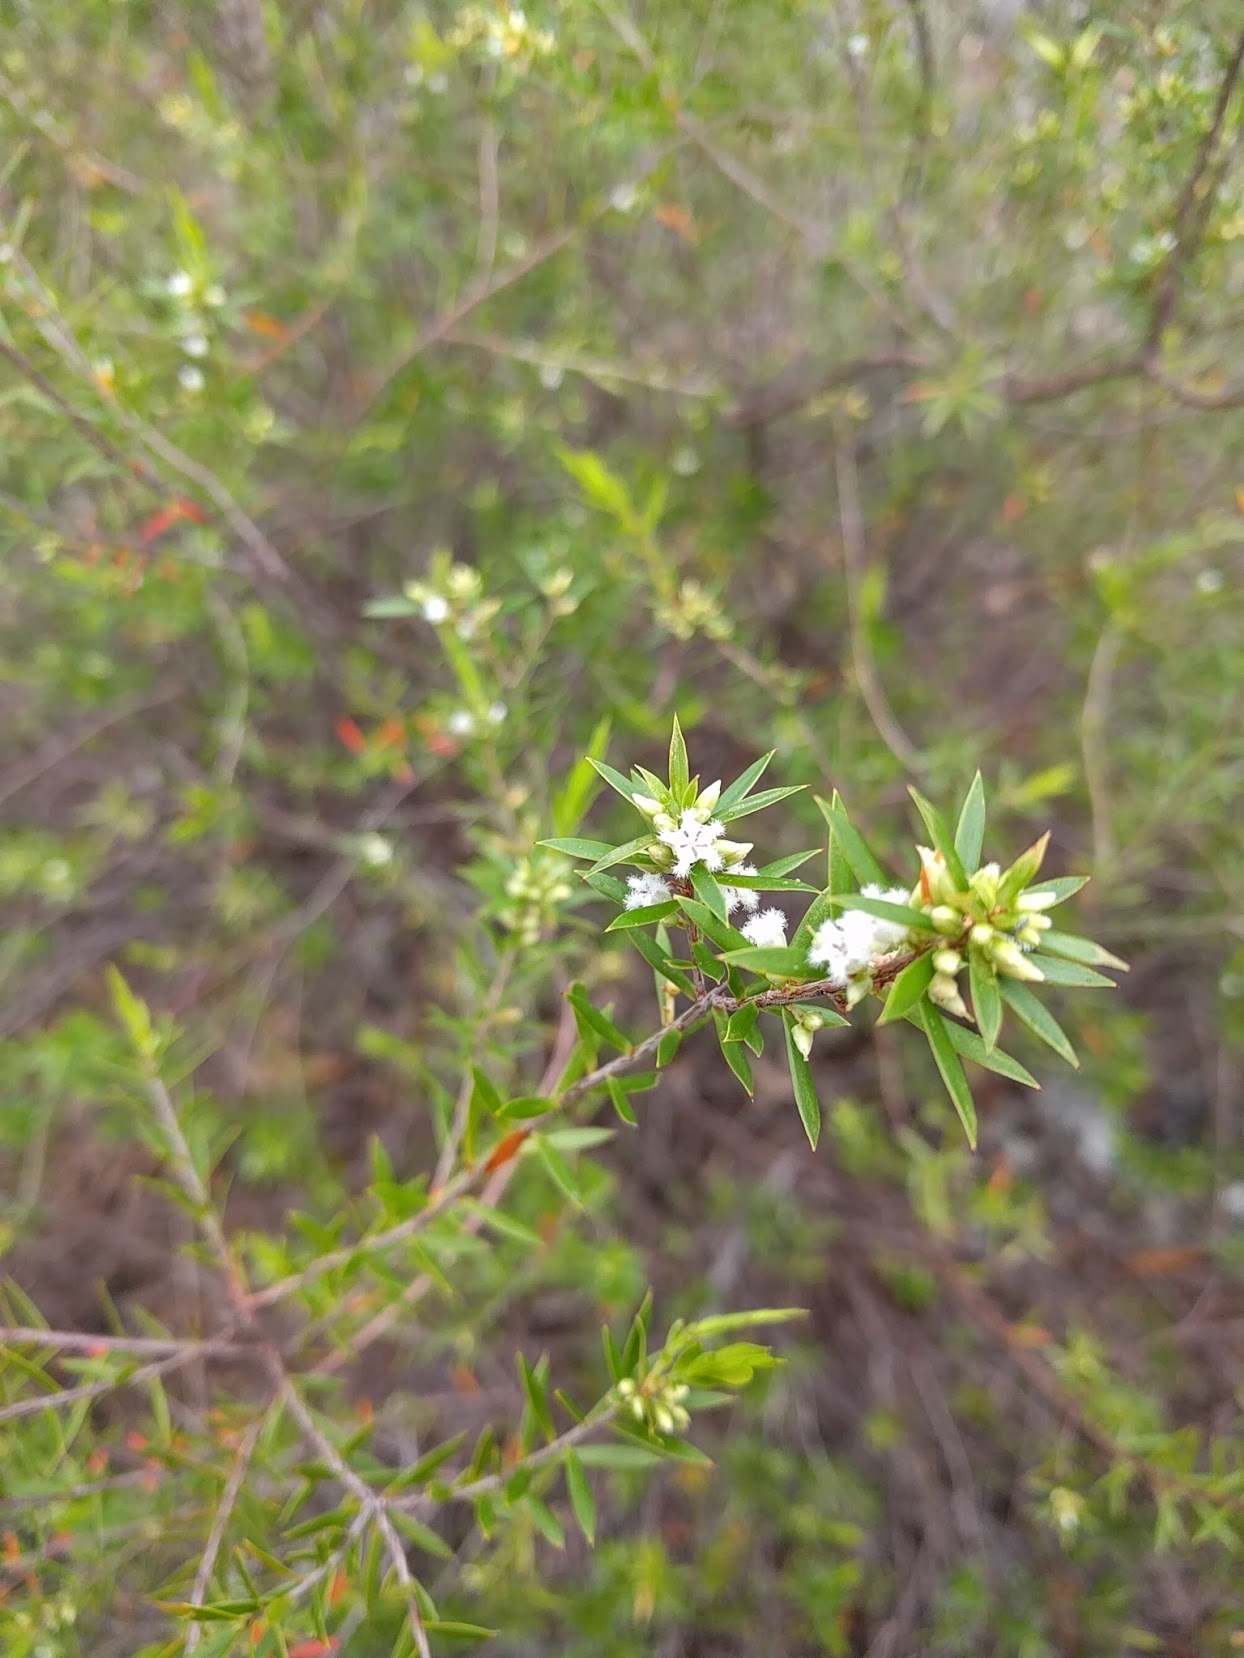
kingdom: Plantae
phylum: Tracheophyta
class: Magnoliopsida
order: Ericales
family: Ericaceae
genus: Styphelia
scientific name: Styphelia leptospermoides
